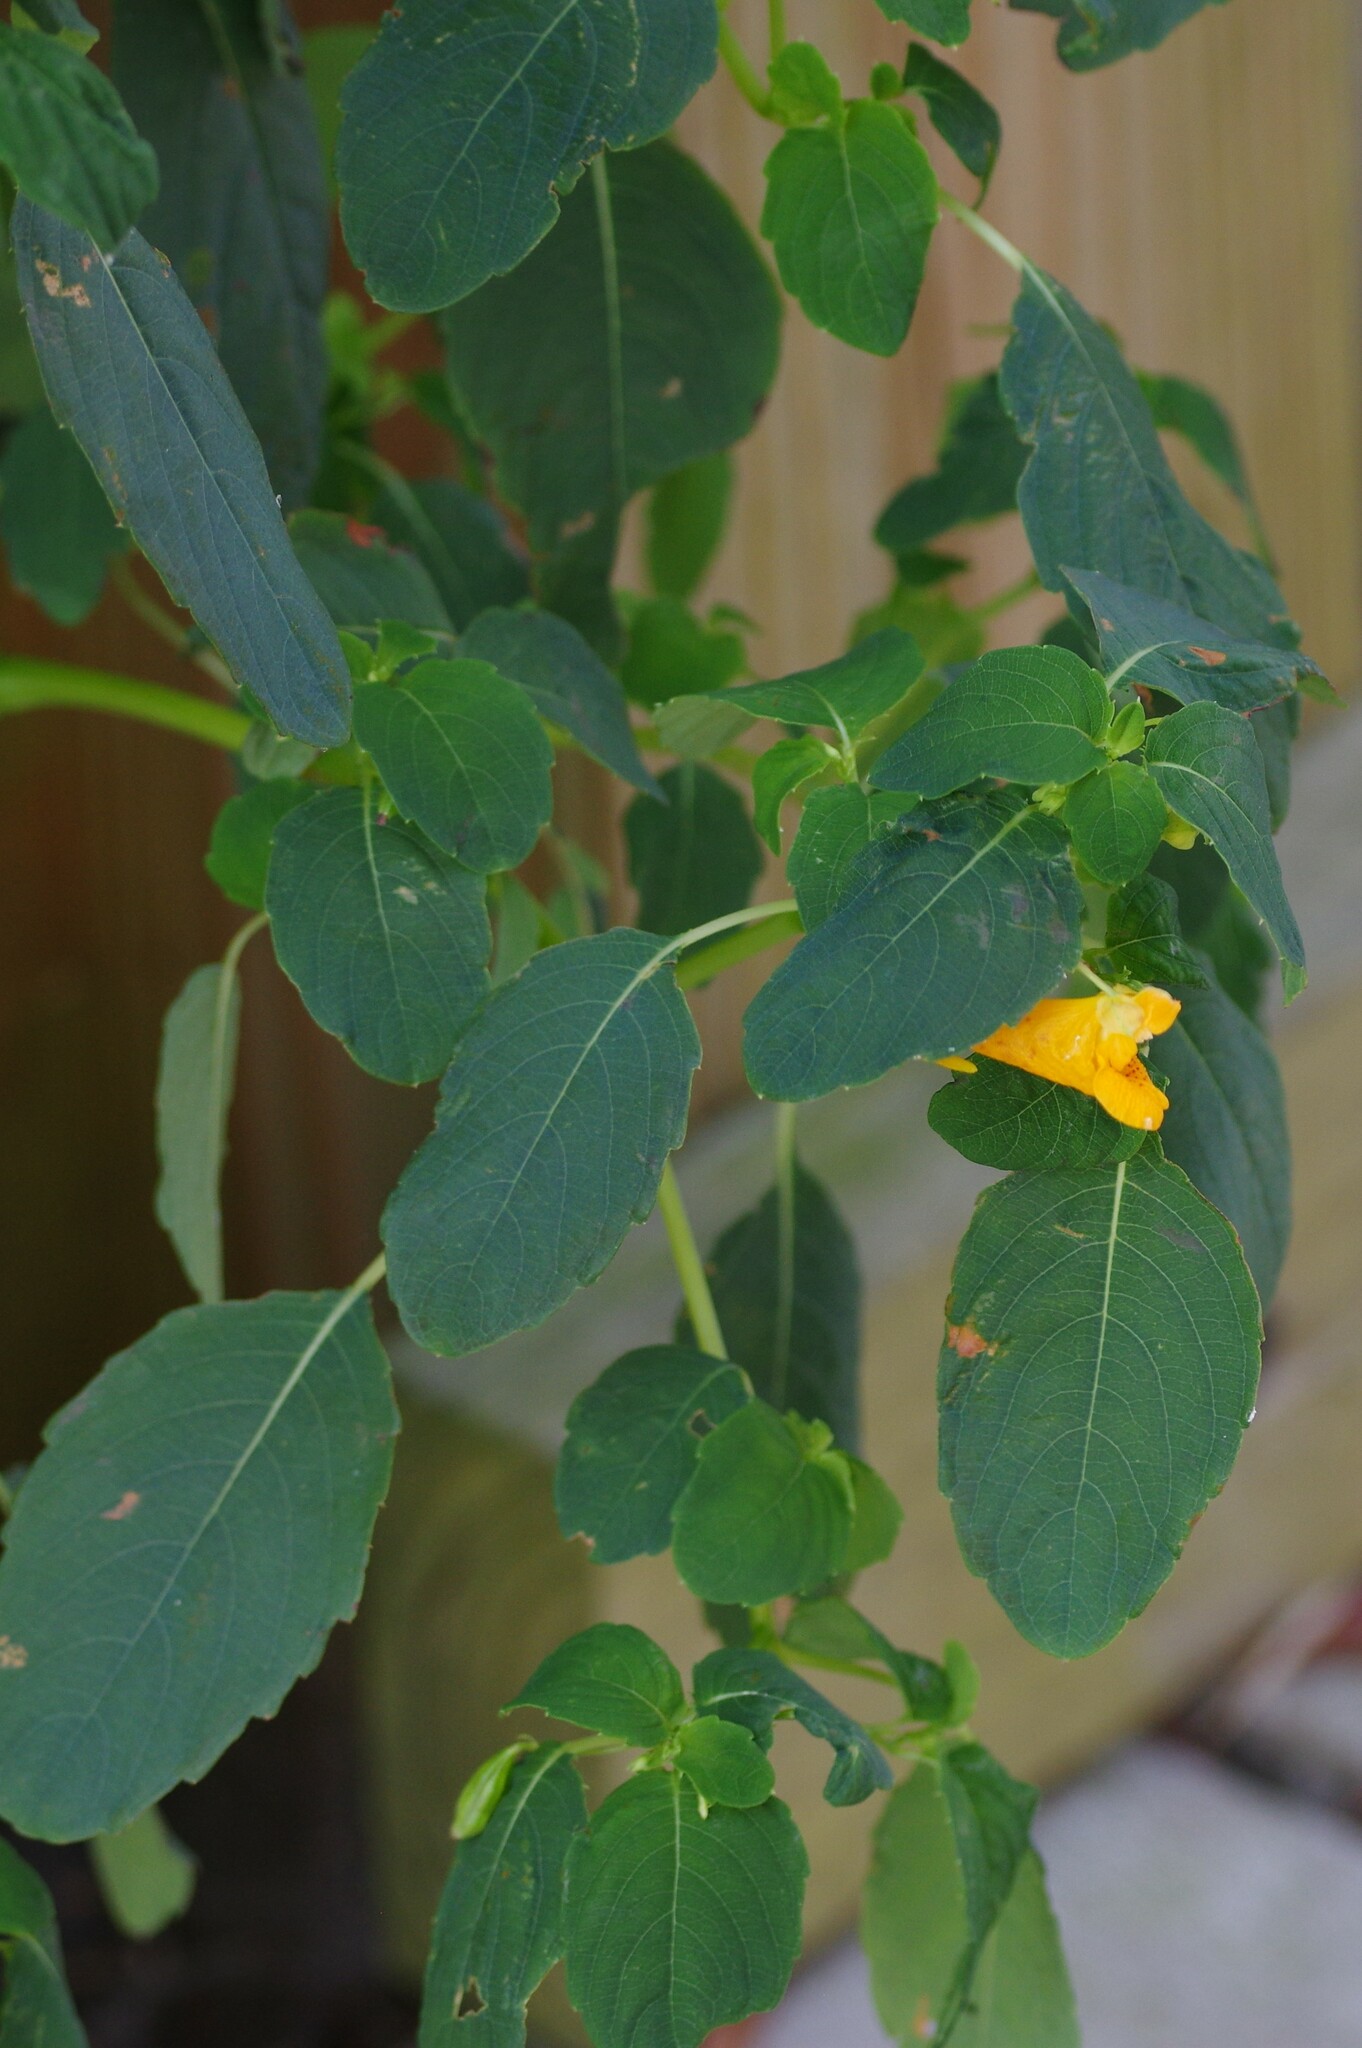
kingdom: Plantae
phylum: Tracheophyta
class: Magnoliopsida
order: Ericales
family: Balsaminaceae
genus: Impatiens
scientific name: Impatiens capensis
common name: Orange balsam
